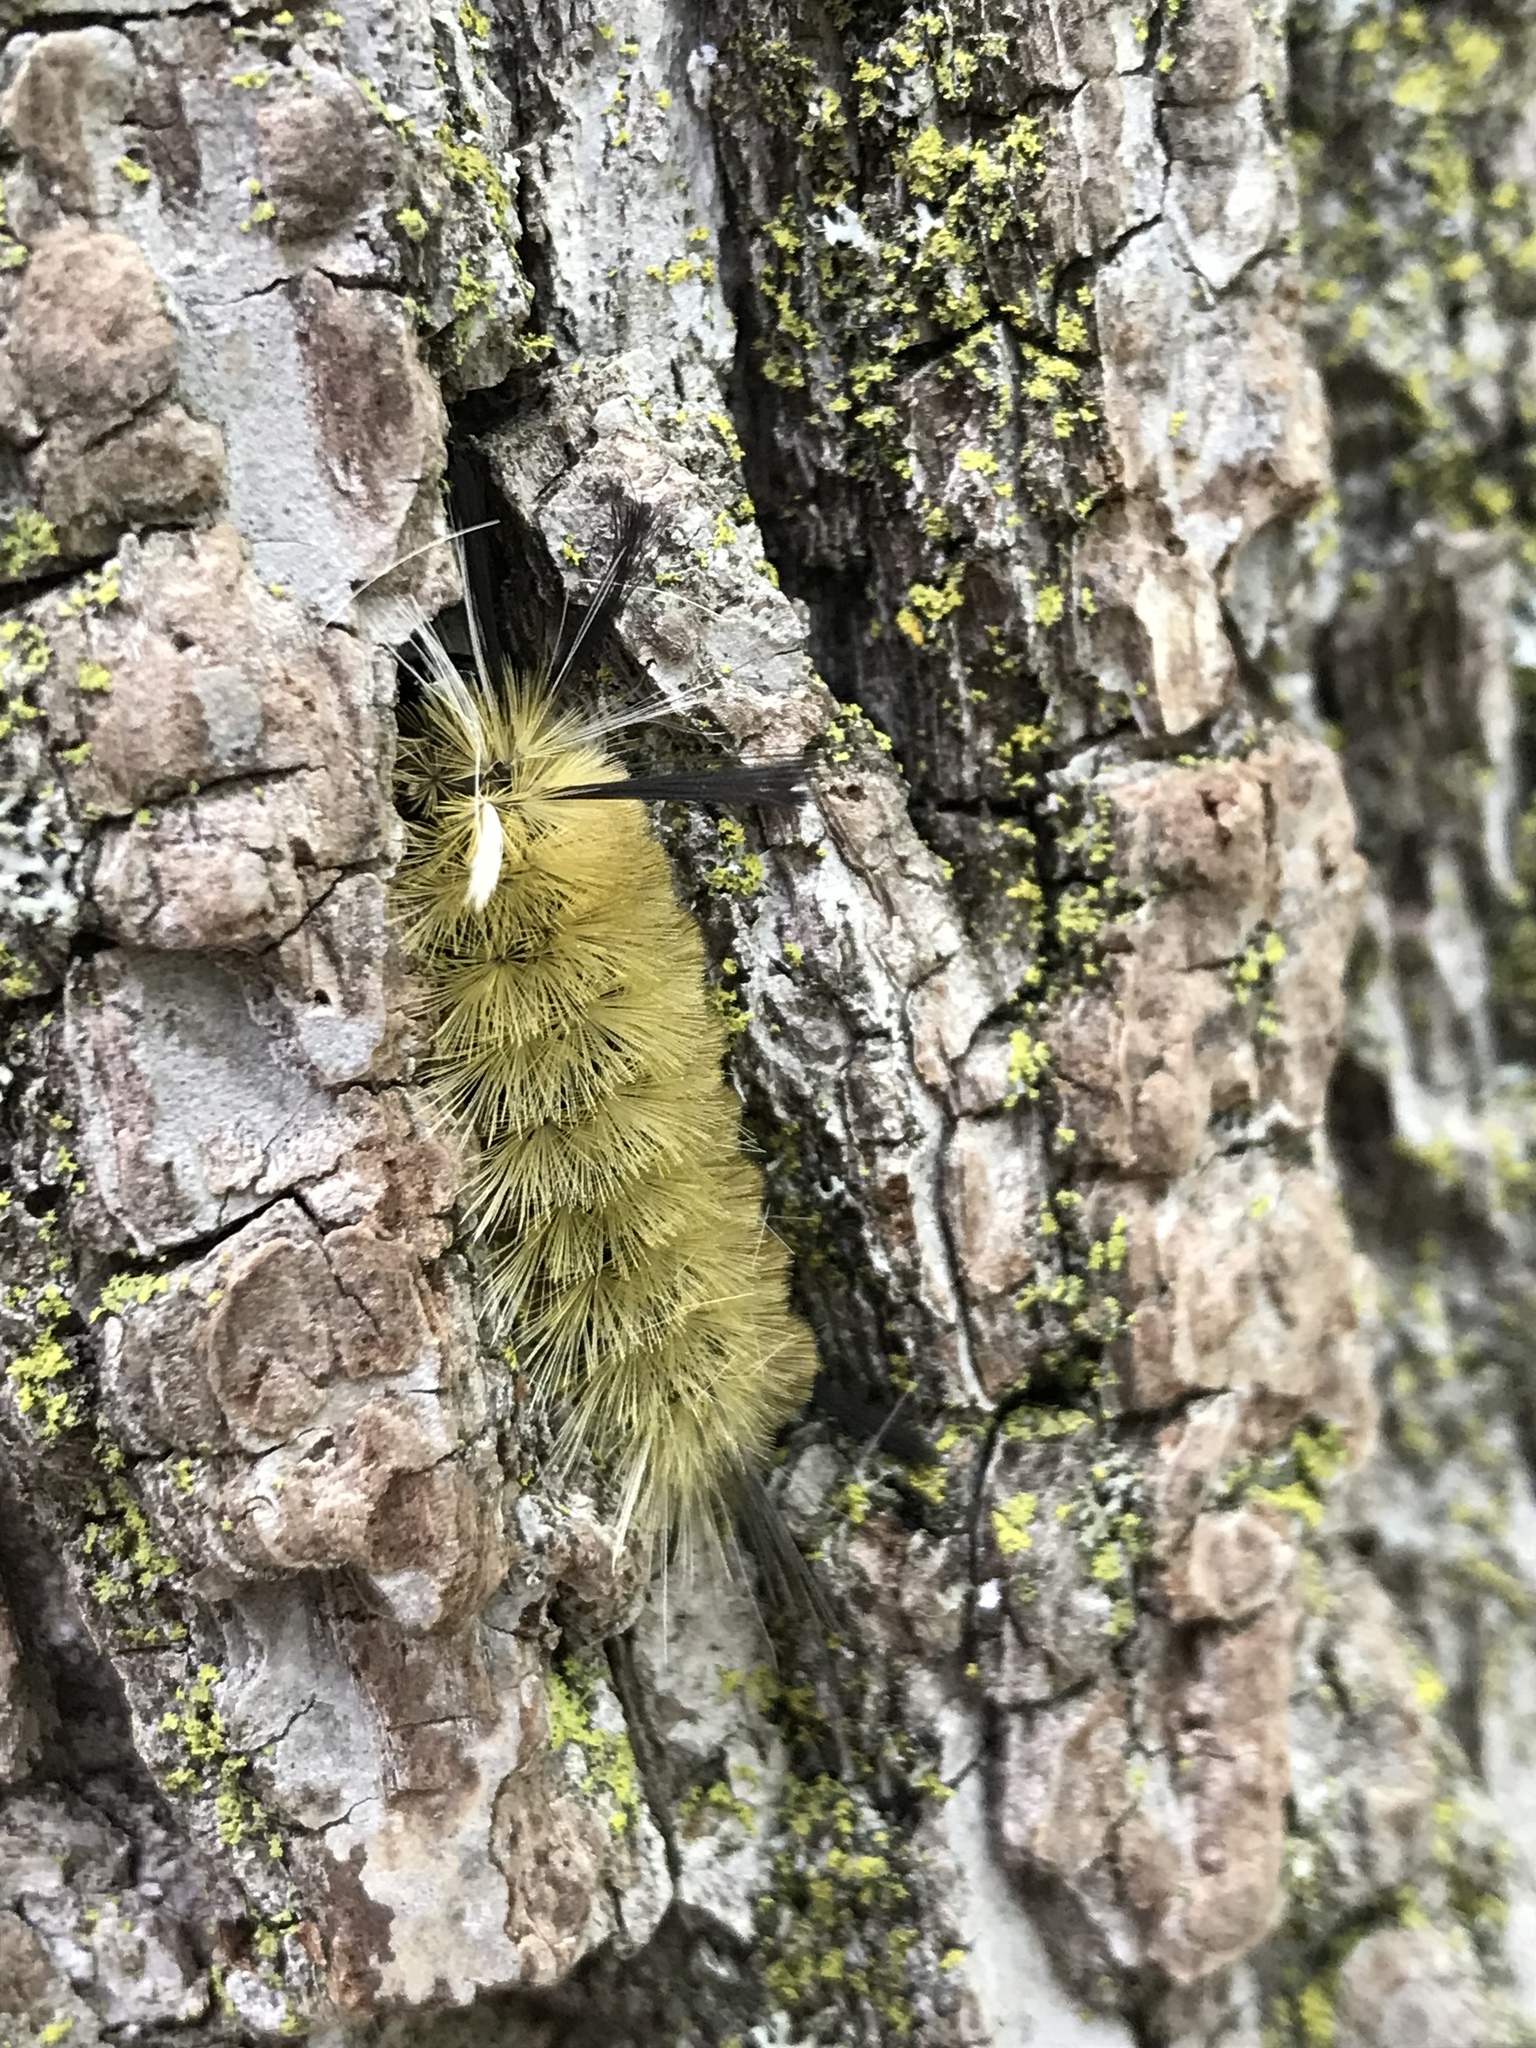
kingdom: Animalia
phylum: Arthropoda
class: Insecta
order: Lepidoptera
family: Erebidae
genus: Halysidota
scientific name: Halysidota tessellaris
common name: Banded tussock moth
